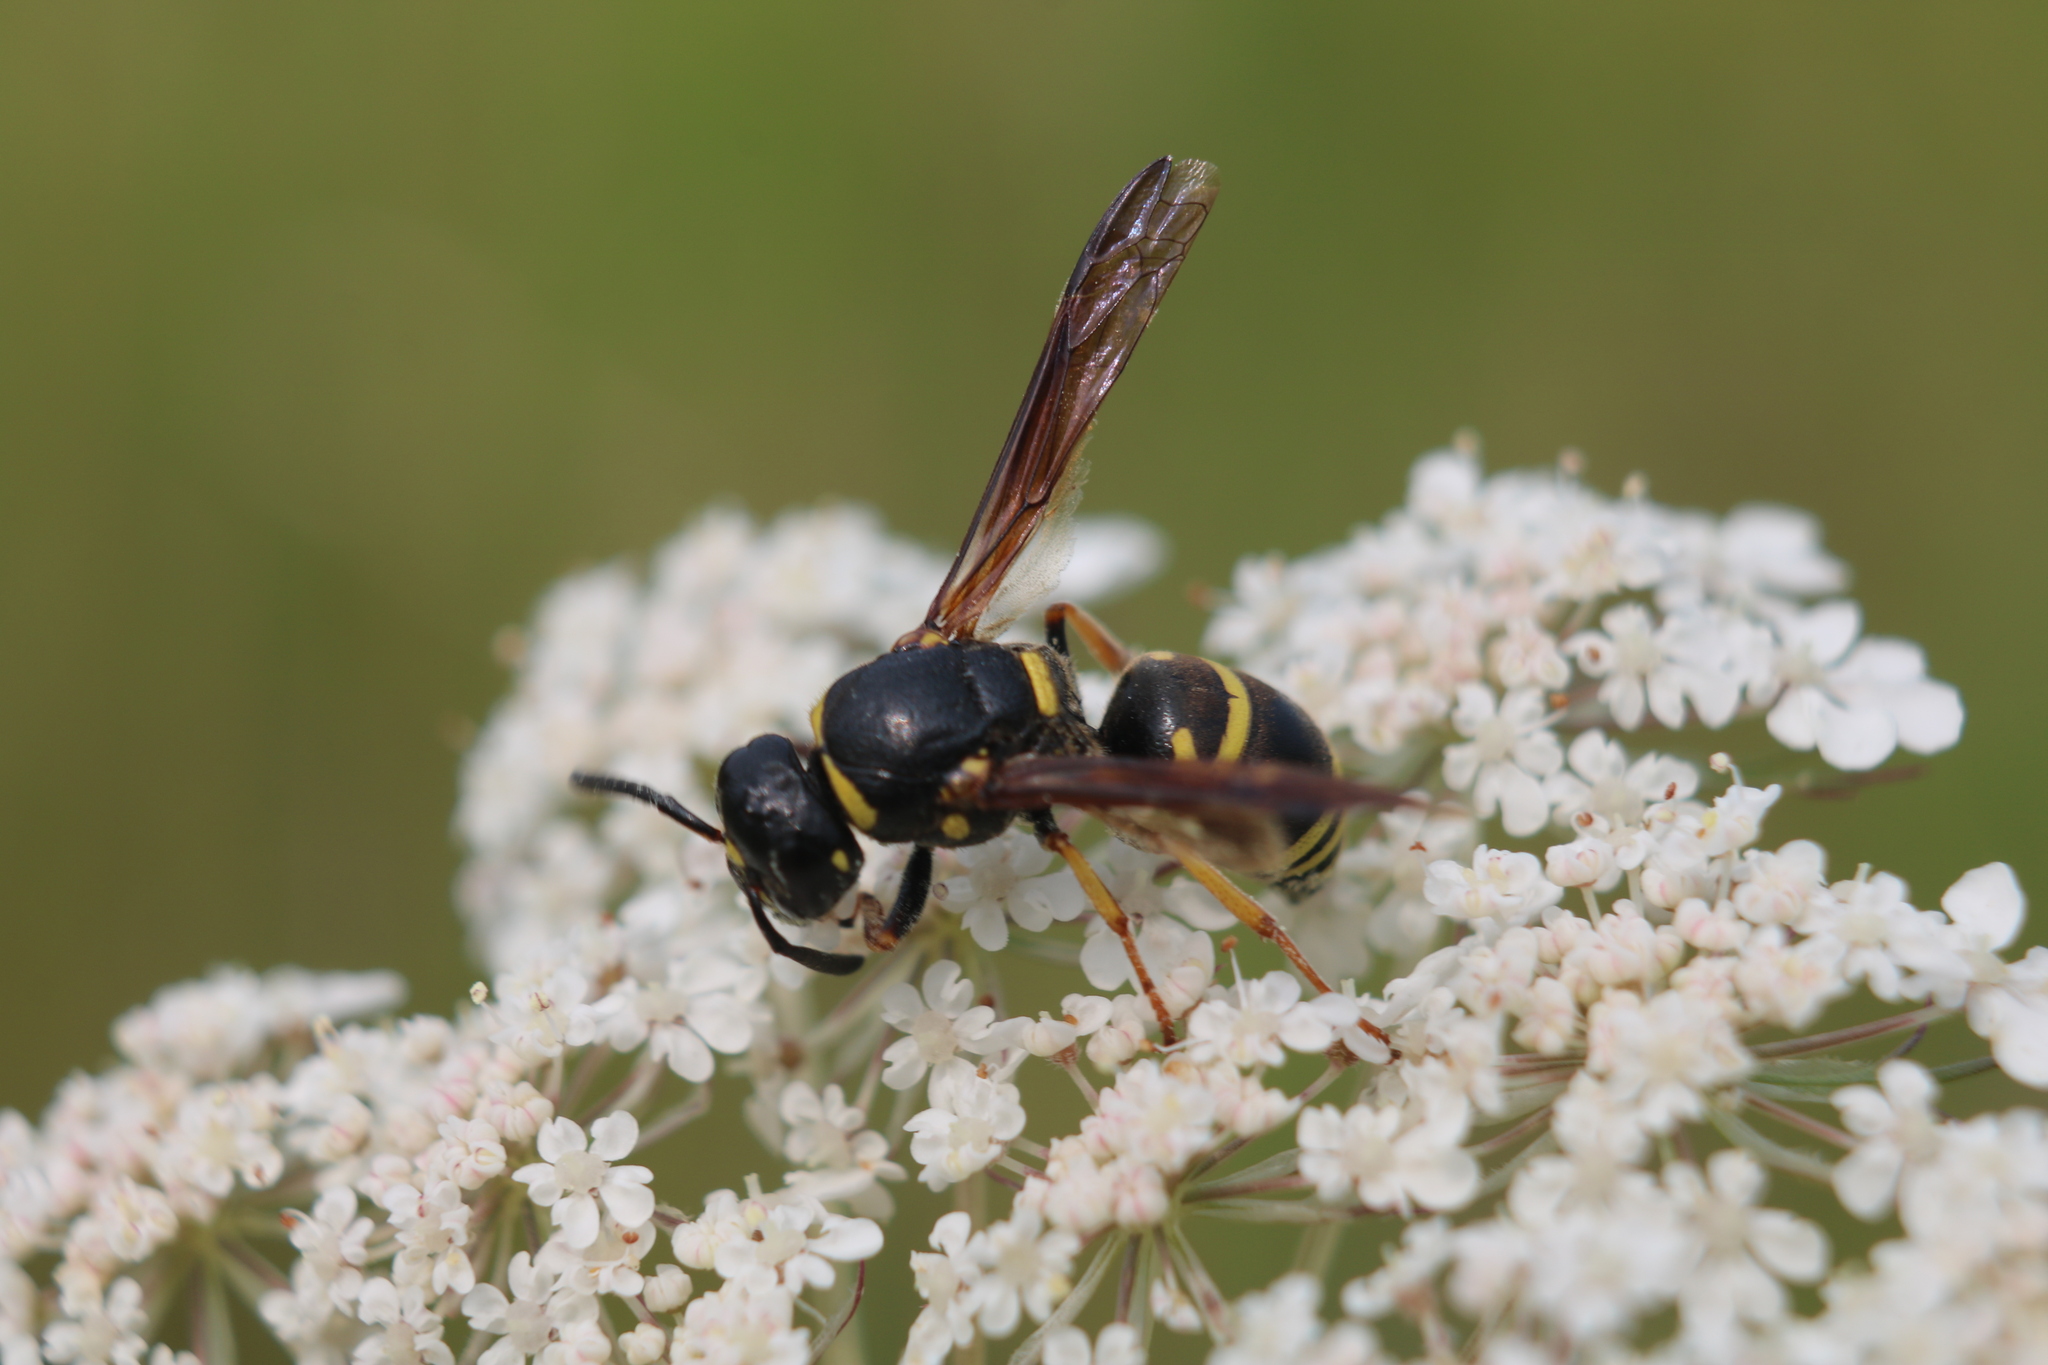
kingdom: Animalia
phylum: Arthropoda
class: Insecta
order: Hymenoptera
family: Eumenidae
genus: Euodynerus
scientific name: Euodynerus foraminatus
